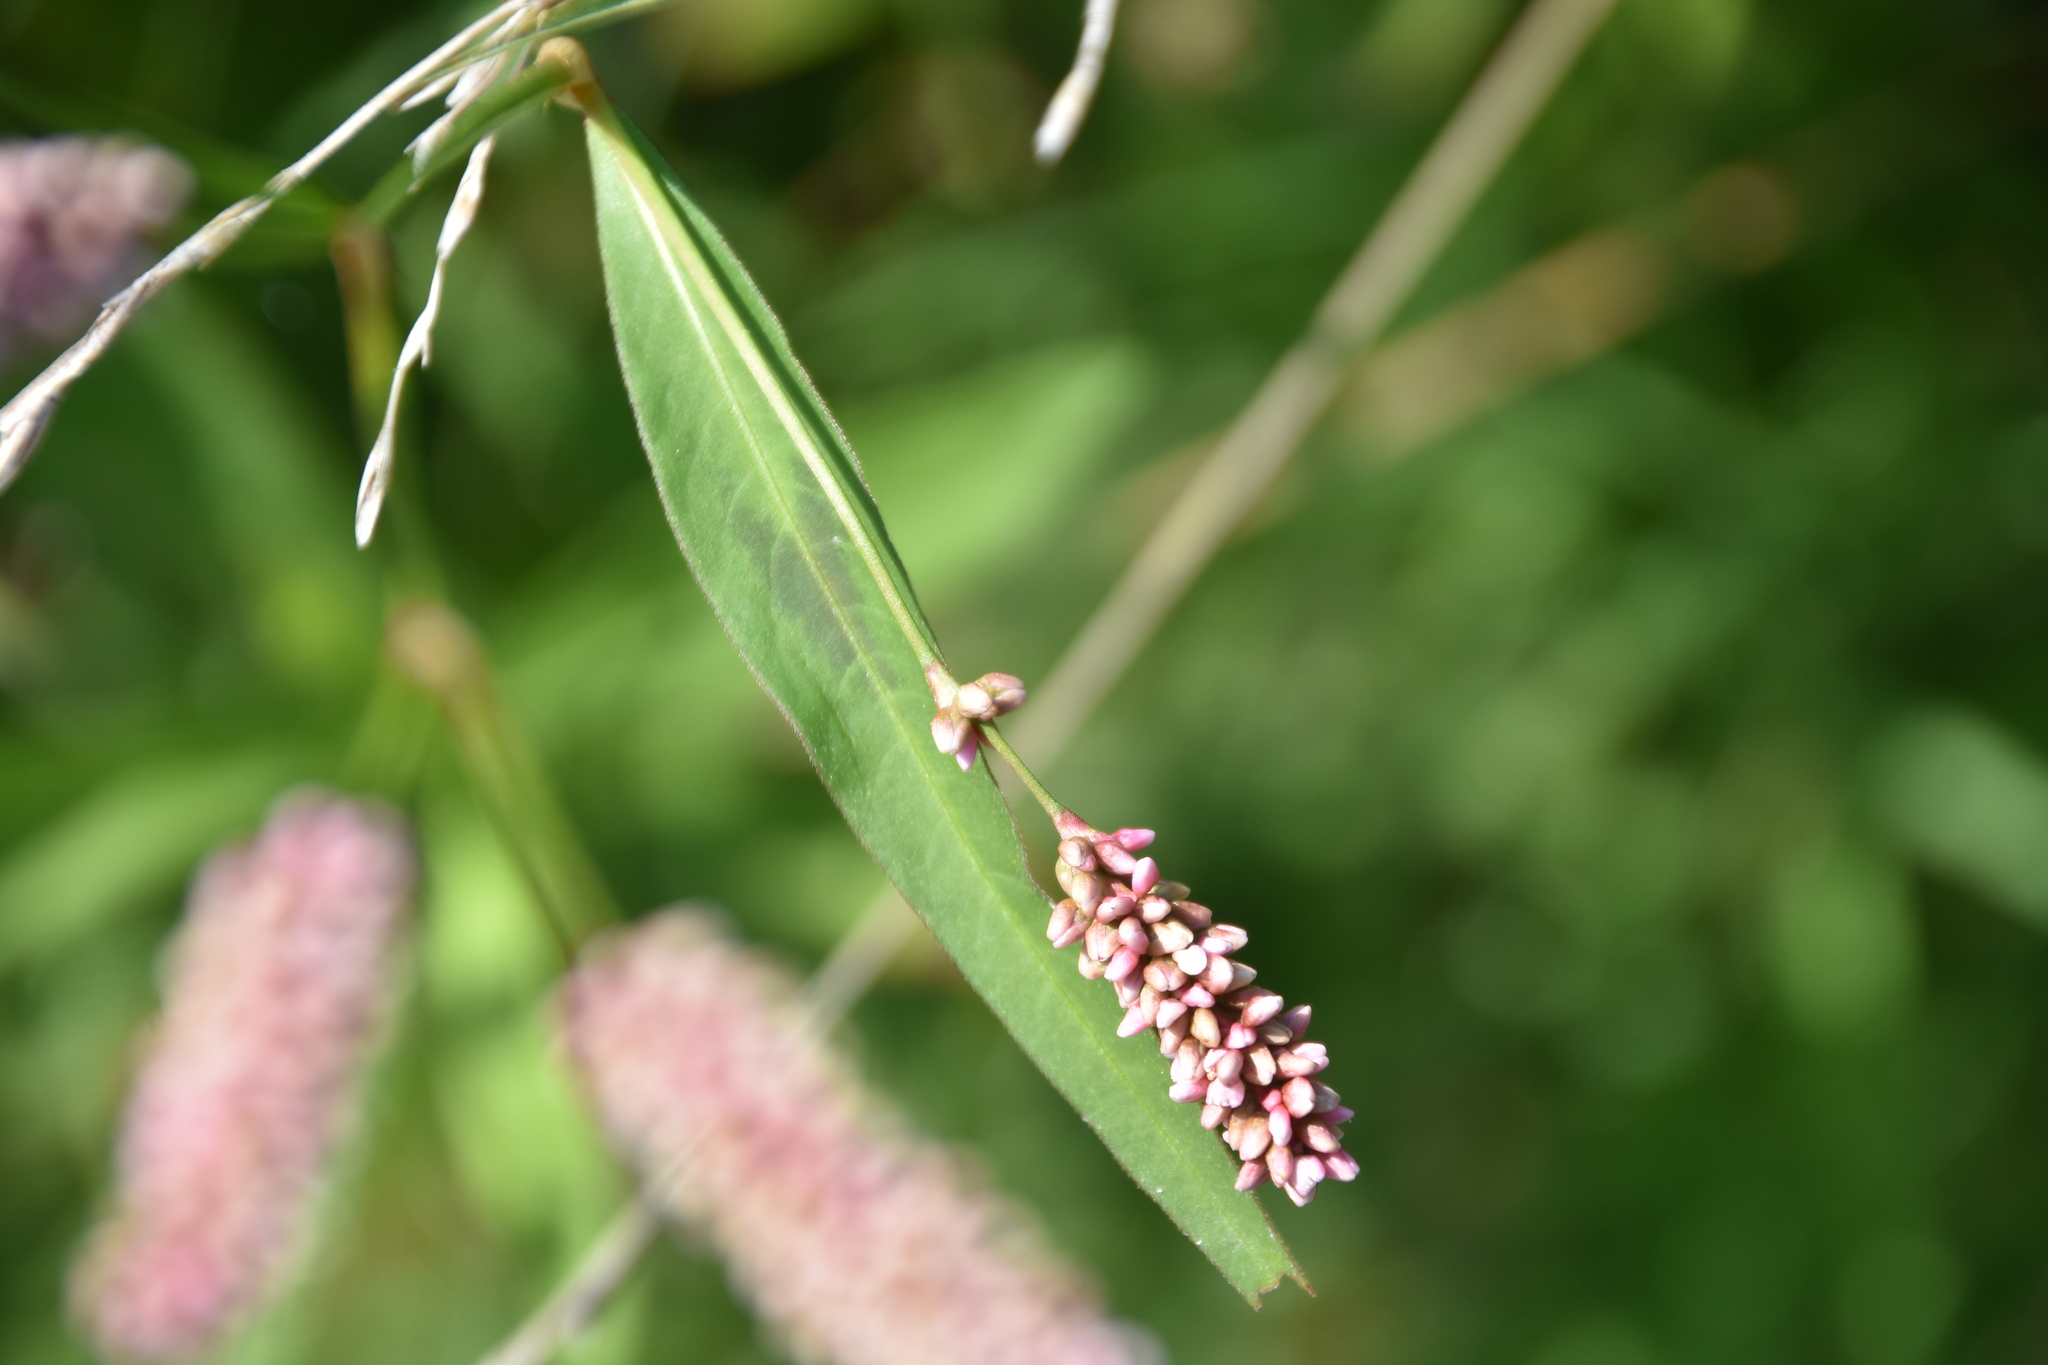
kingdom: Plantae
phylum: Tracheophyta
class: Magnoliopsida
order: Caryophyllales
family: Polygonaceae
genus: Persicaria
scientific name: Persicaria maculosa
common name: Redshank
